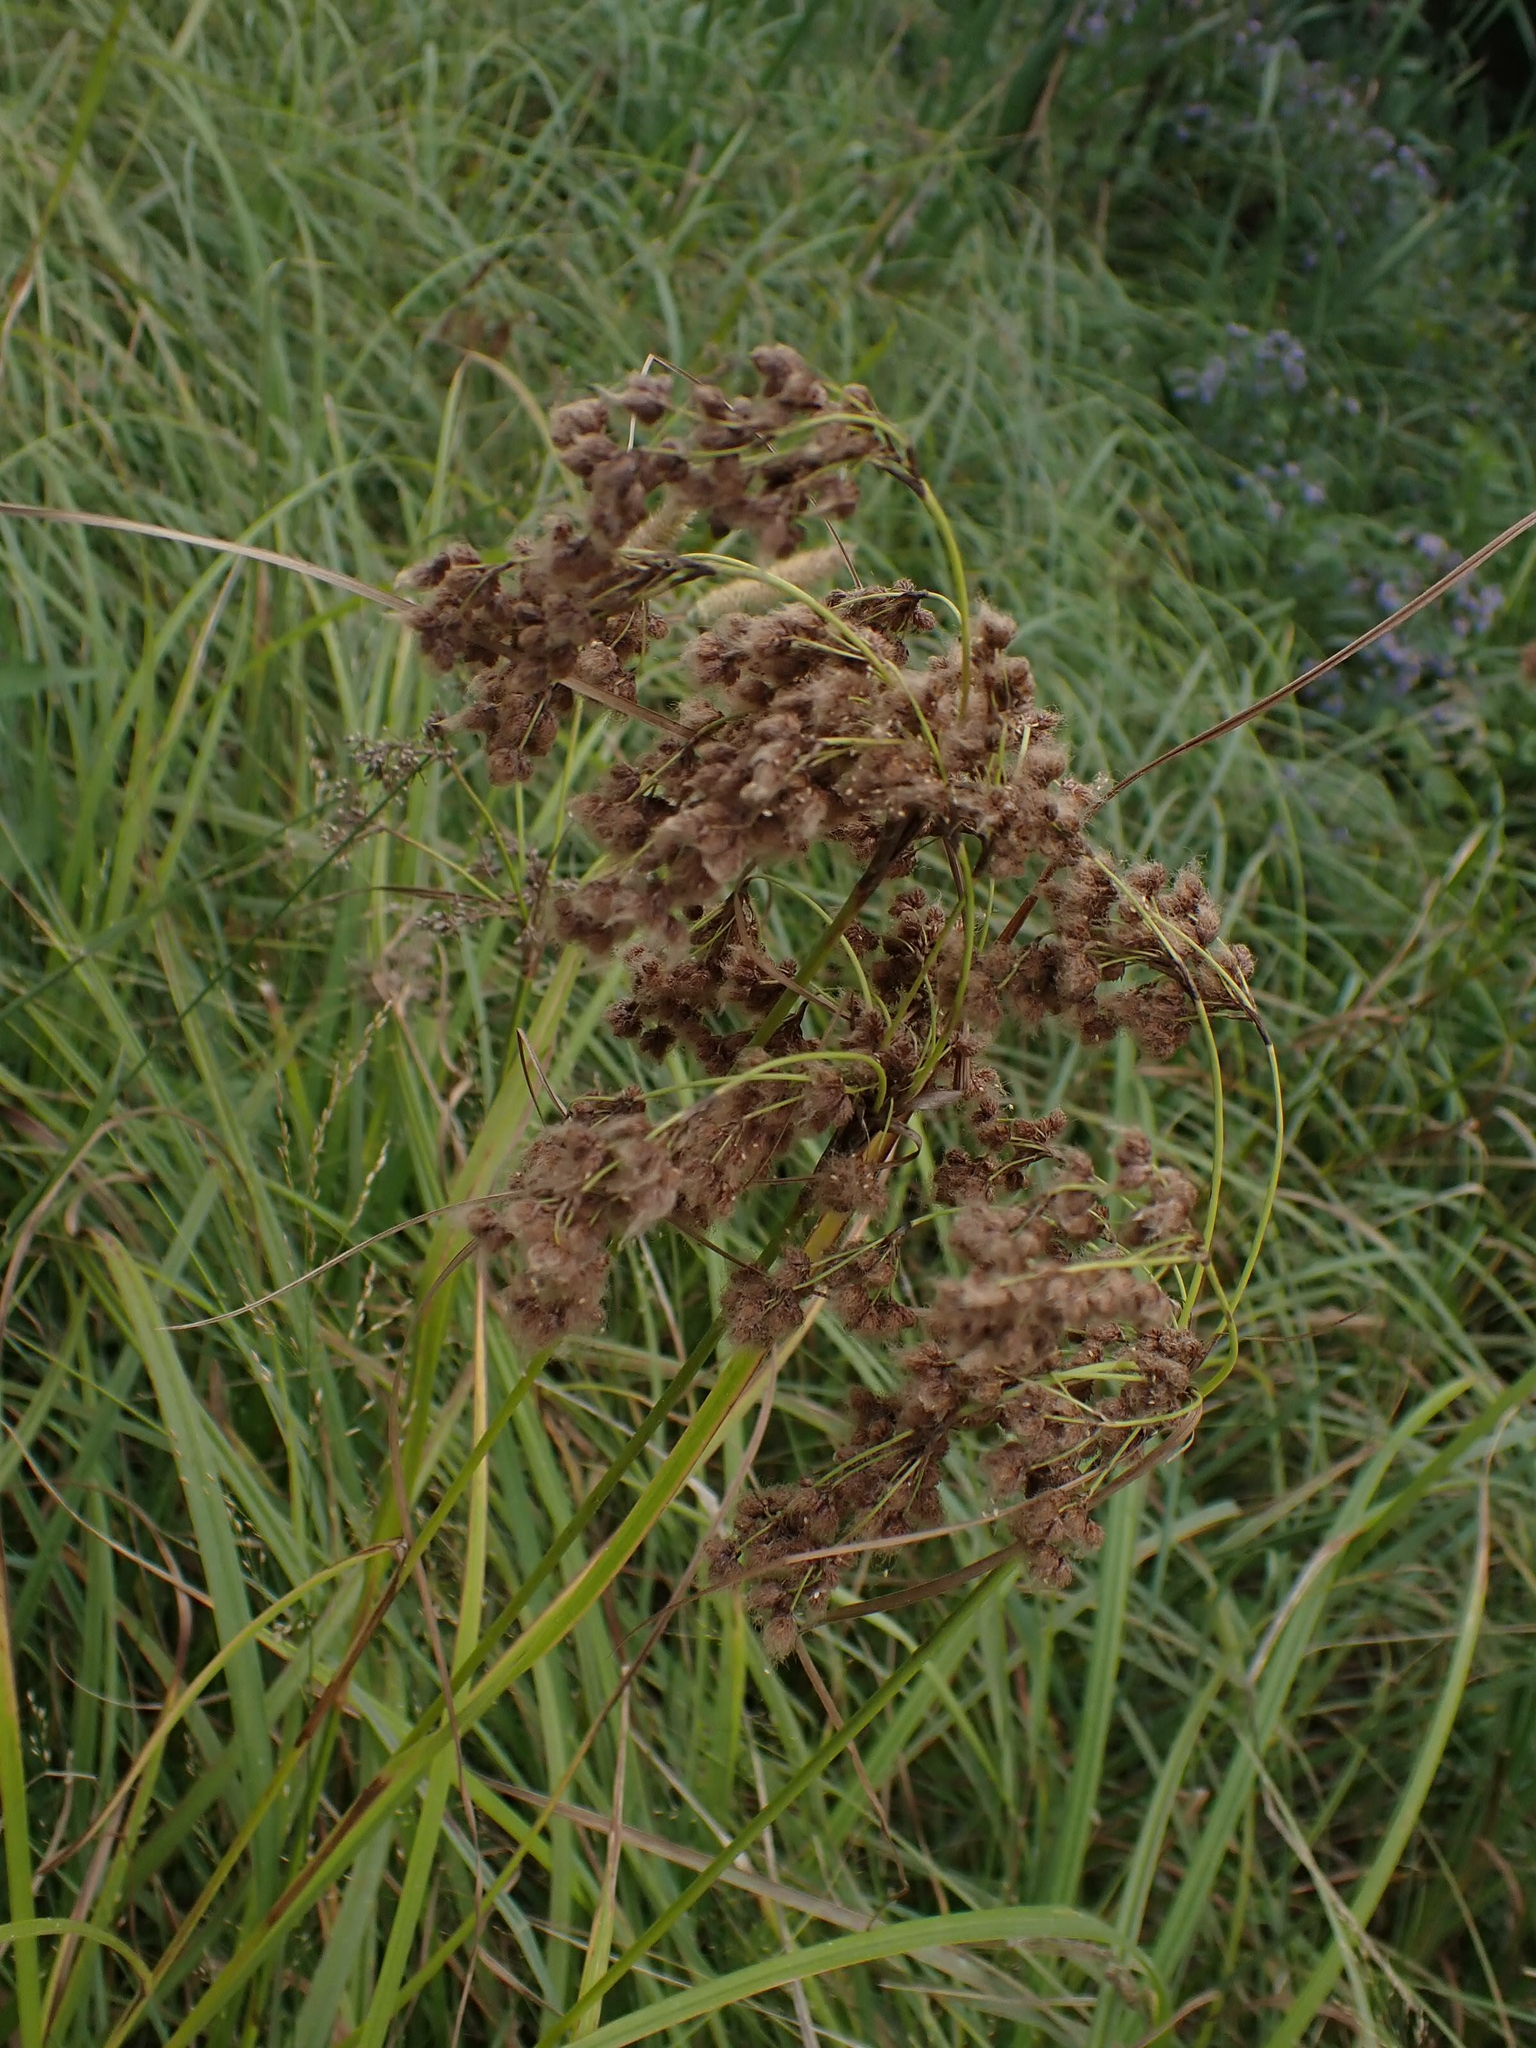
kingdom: Plantae
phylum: Tracheophyta
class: Liliopsida
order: Poales
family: Cyperaceae
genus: Scirpus
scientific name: Scirpus cyperinus
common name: Black-sheathed bulrush
